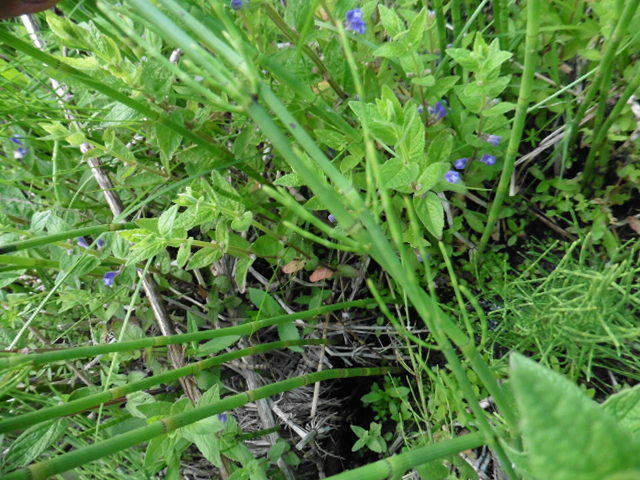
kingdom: Plantae
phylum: Tracheophyta
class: Magnoliopsida
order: Lamiales
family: Lamiaceae
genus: Scutellaria
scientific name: Scutellaria galericulata
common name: Skullcap
